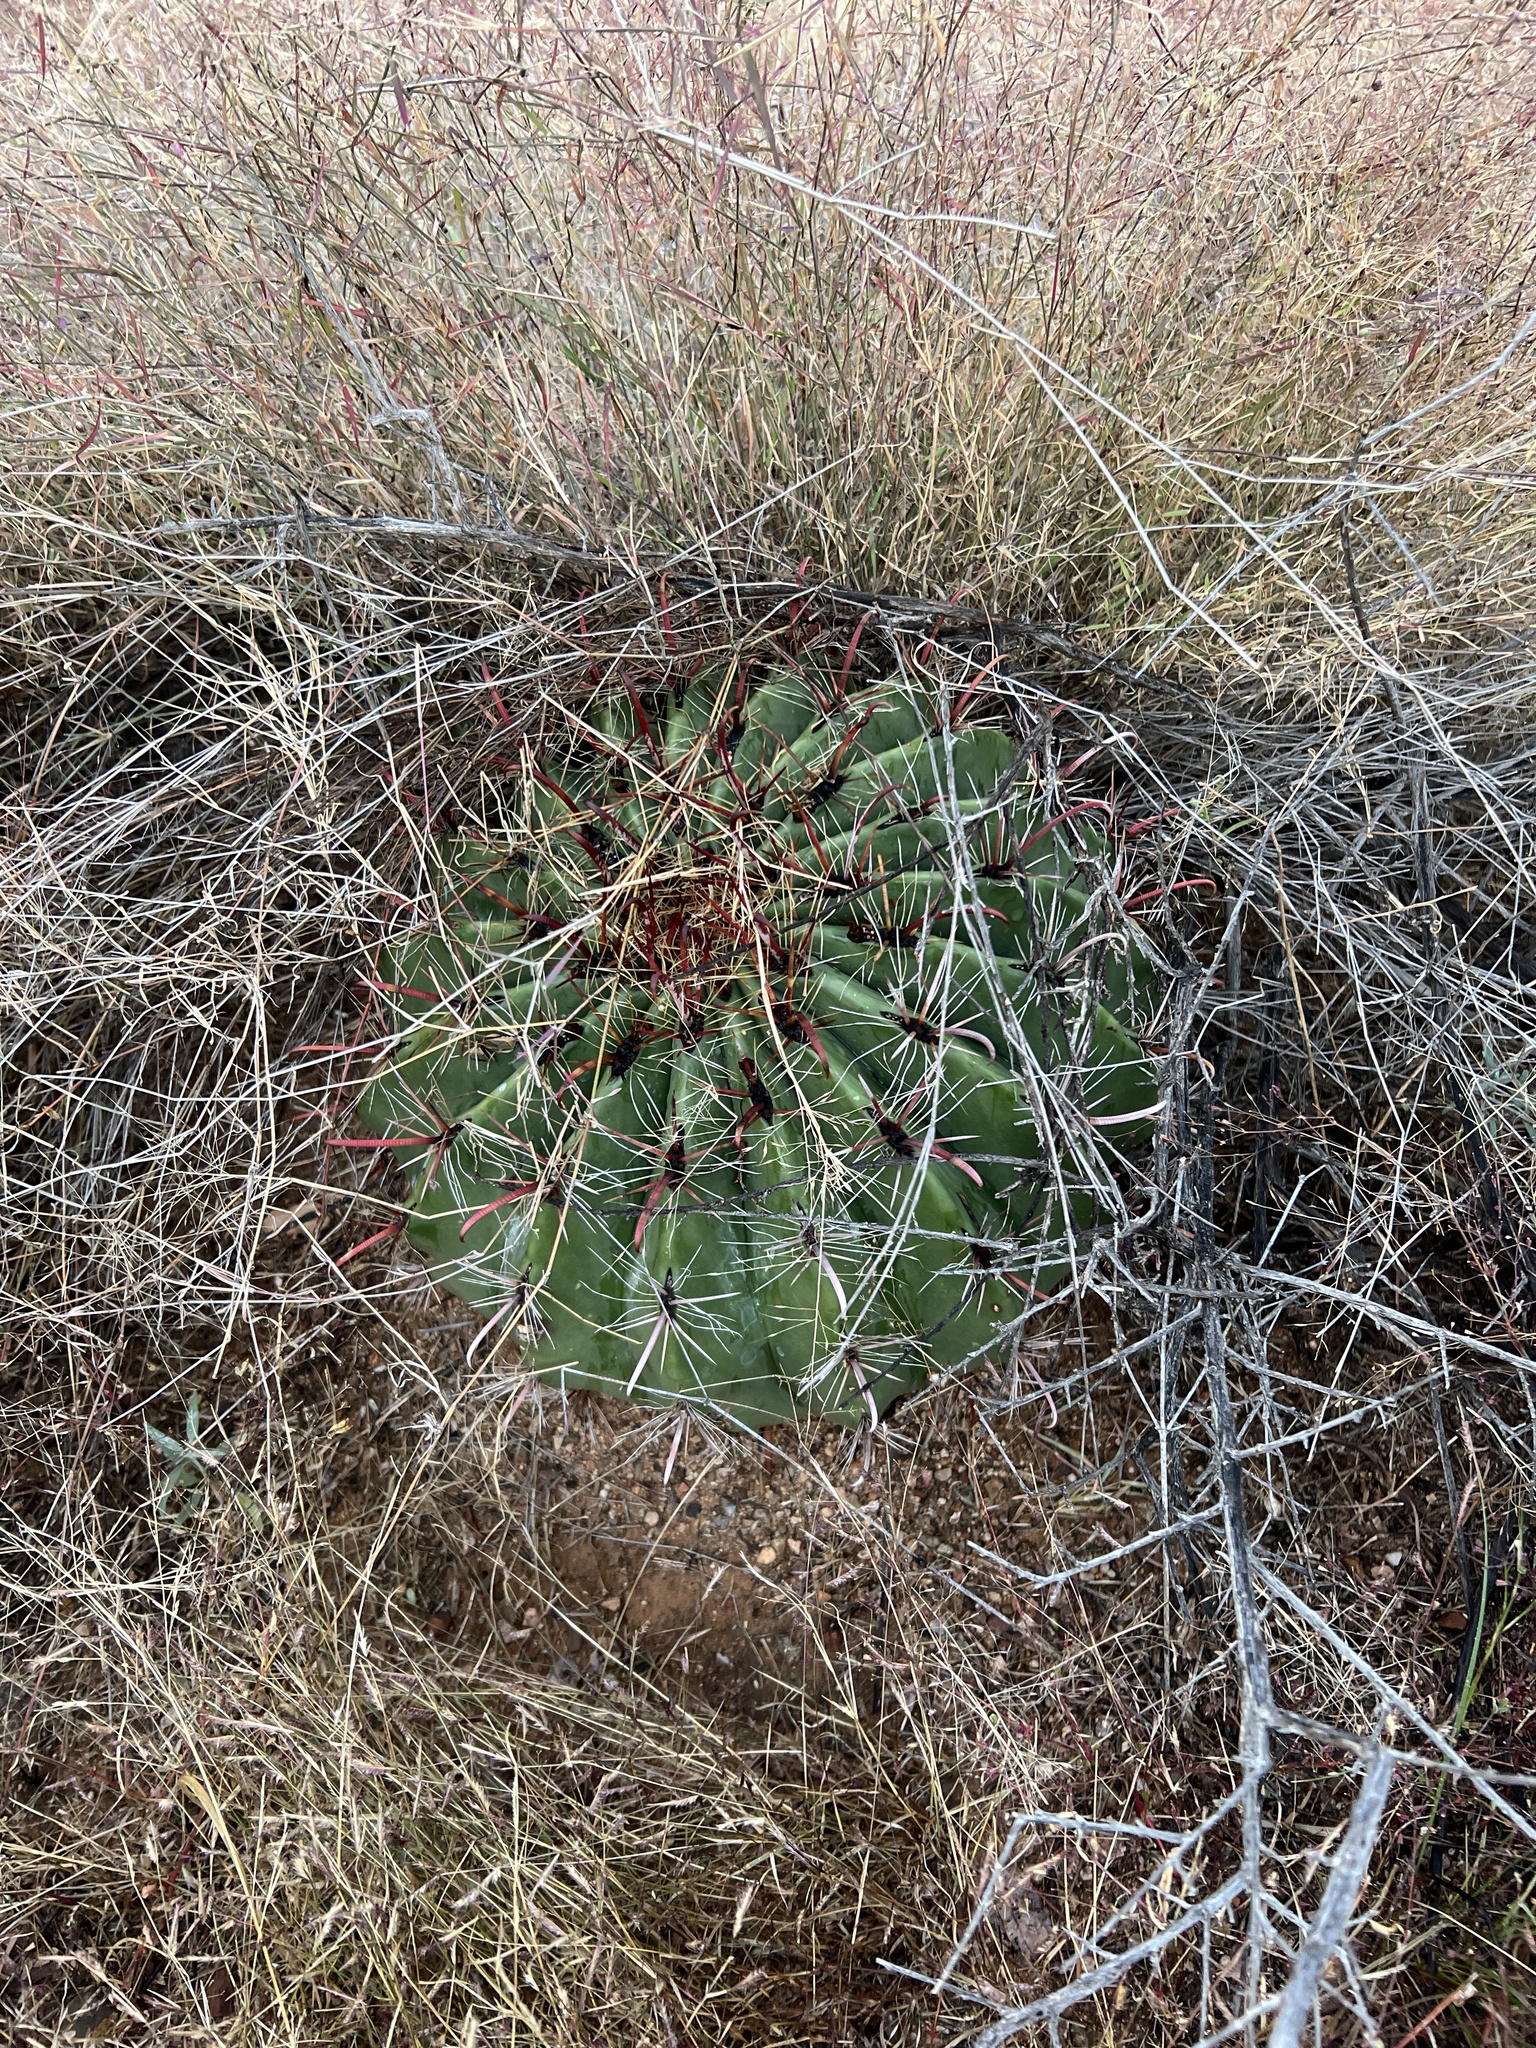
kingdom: Plantae
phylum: Tracheophyta
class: Magnoliopsida
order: Caryophyllales
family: Cactaceae
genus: Ferocactus
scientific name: Ferocactus wislizeni
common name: Candy barrel cactus
